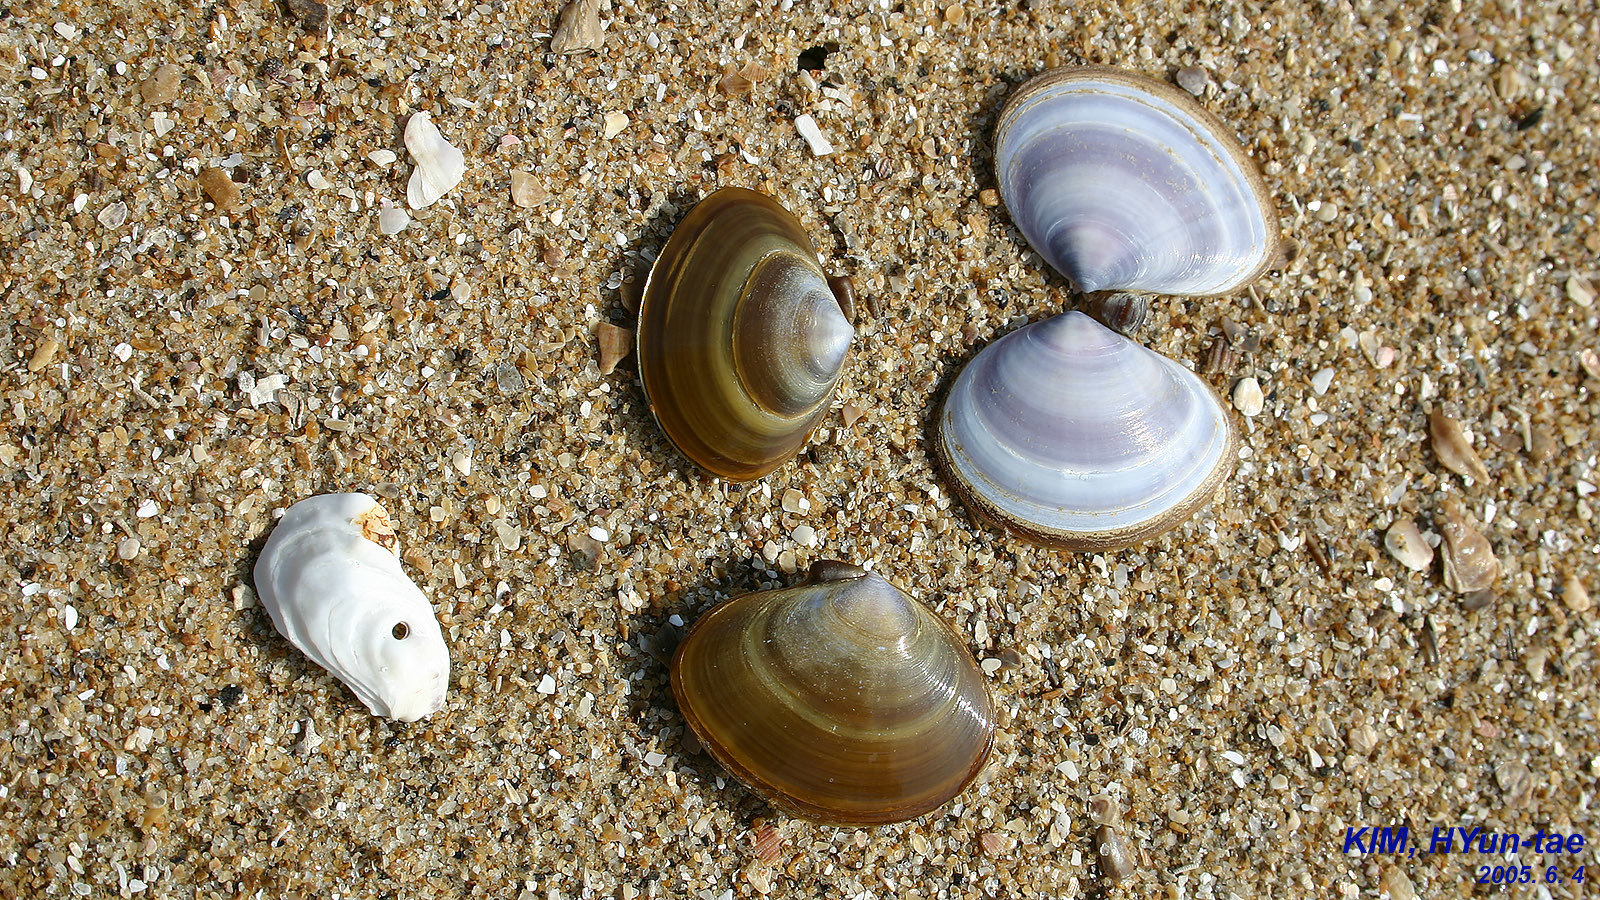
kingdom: Animalia
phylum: Mollusca
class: Bivalvia
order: Cardiida
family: Psammobiidae
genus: Nuttallia
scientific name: Nuttallia japonica
